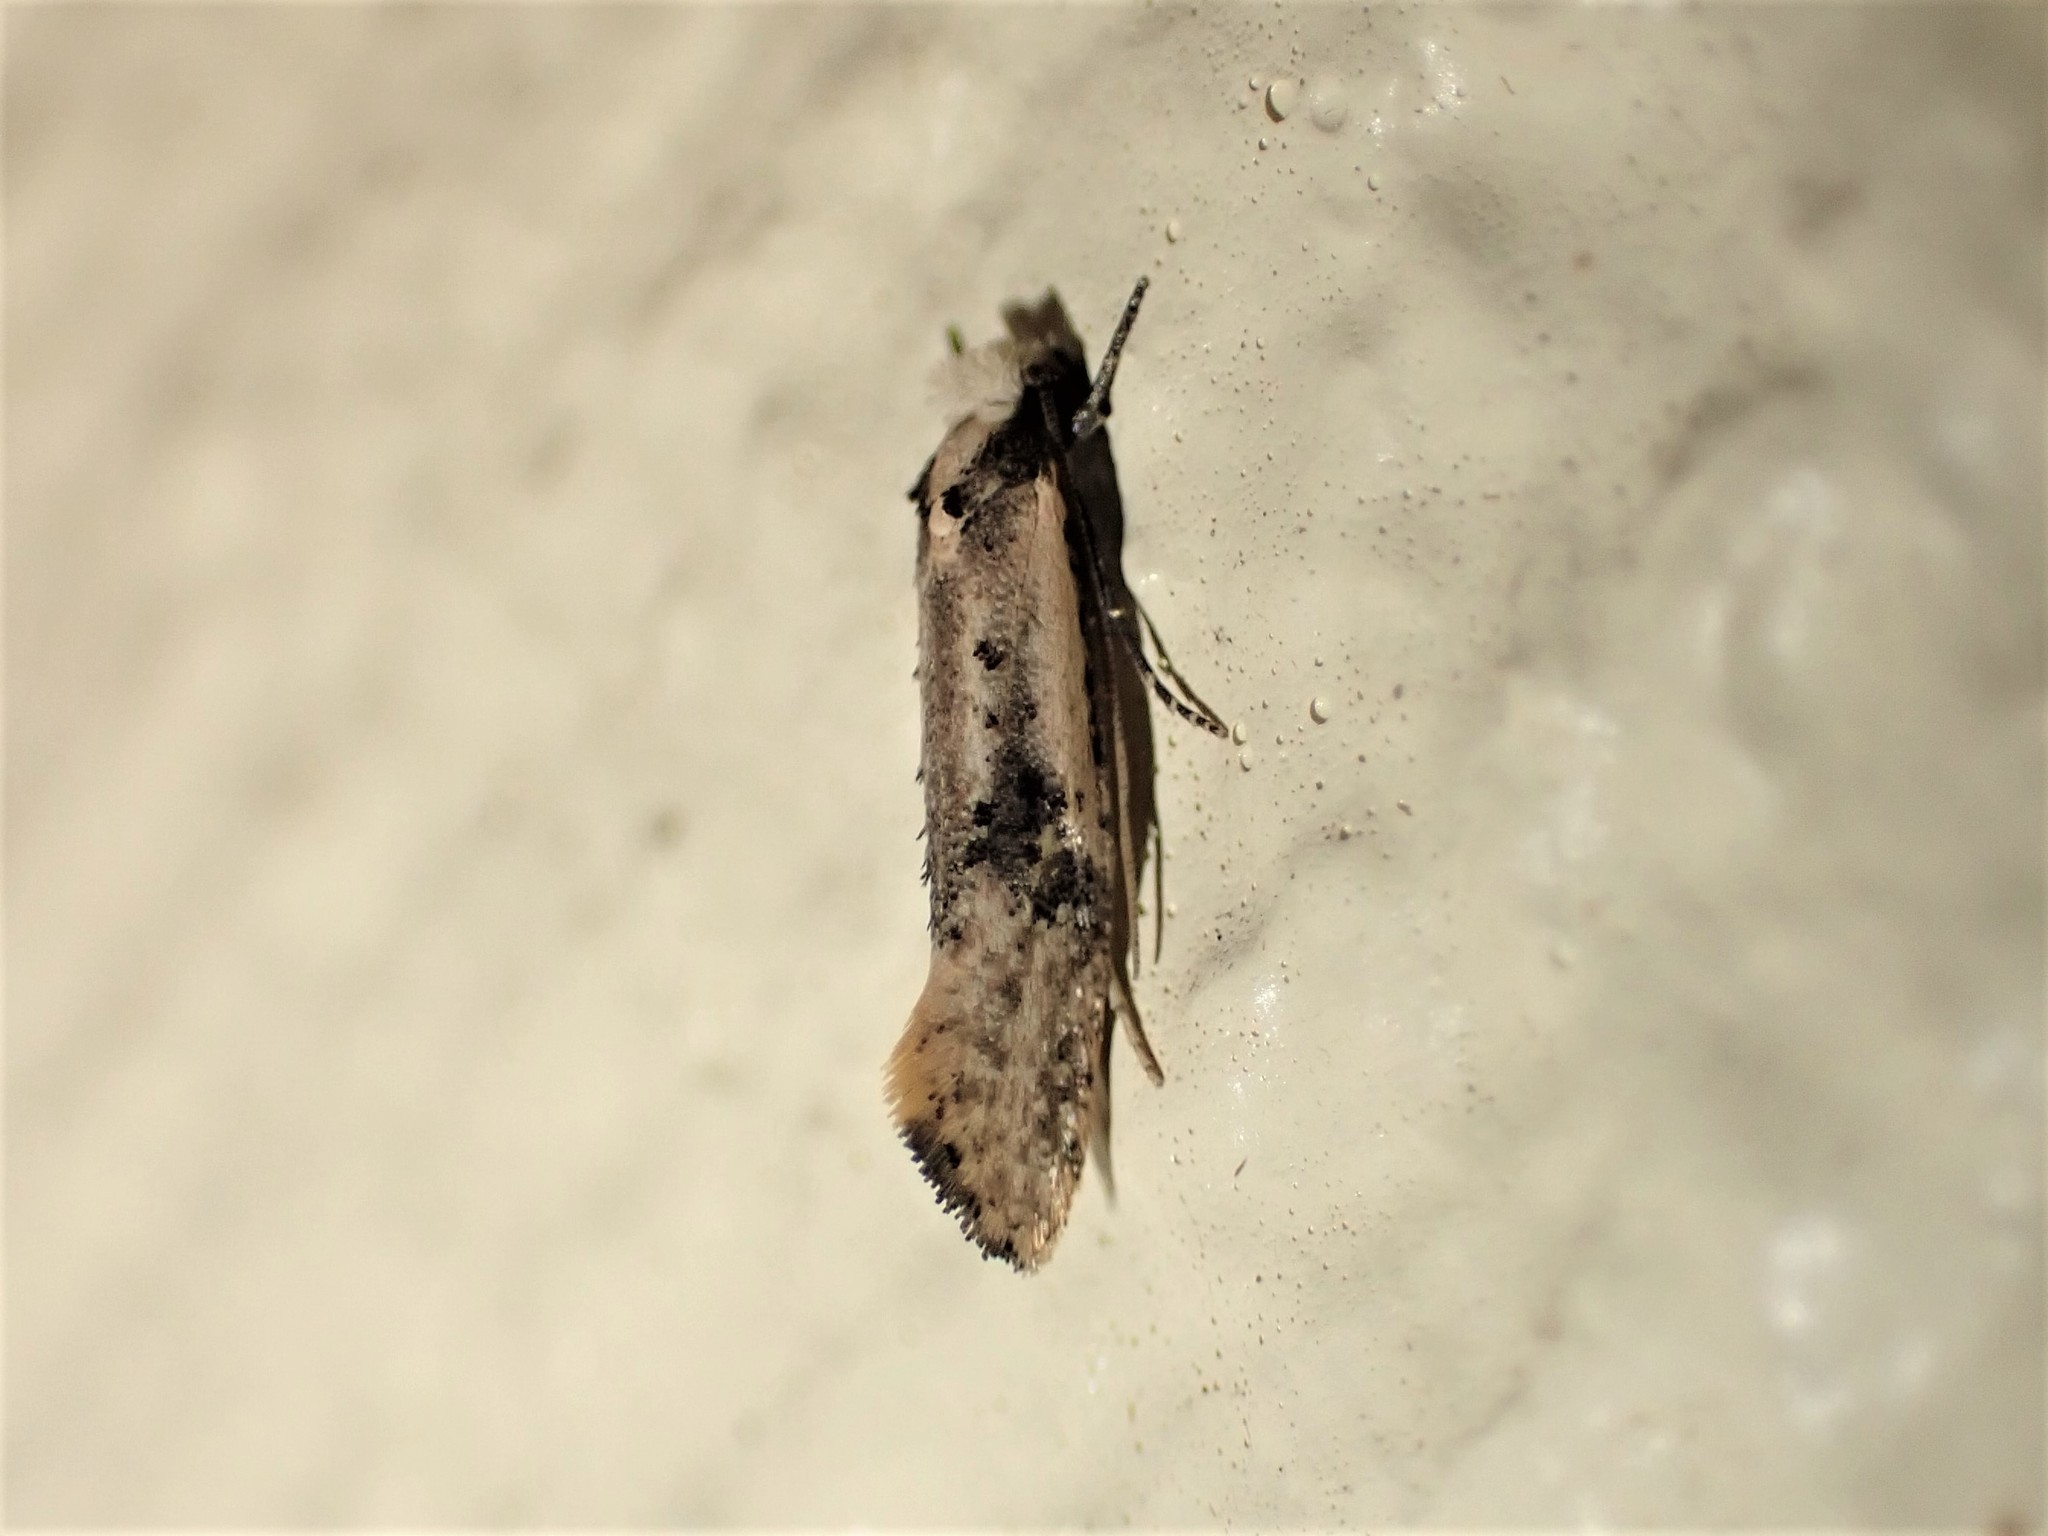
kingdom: Animalia
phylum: Arthropoda
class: Insecta
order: Lepidoptera
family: Tineidae
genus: Monopis
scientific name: Monopis argillacea
